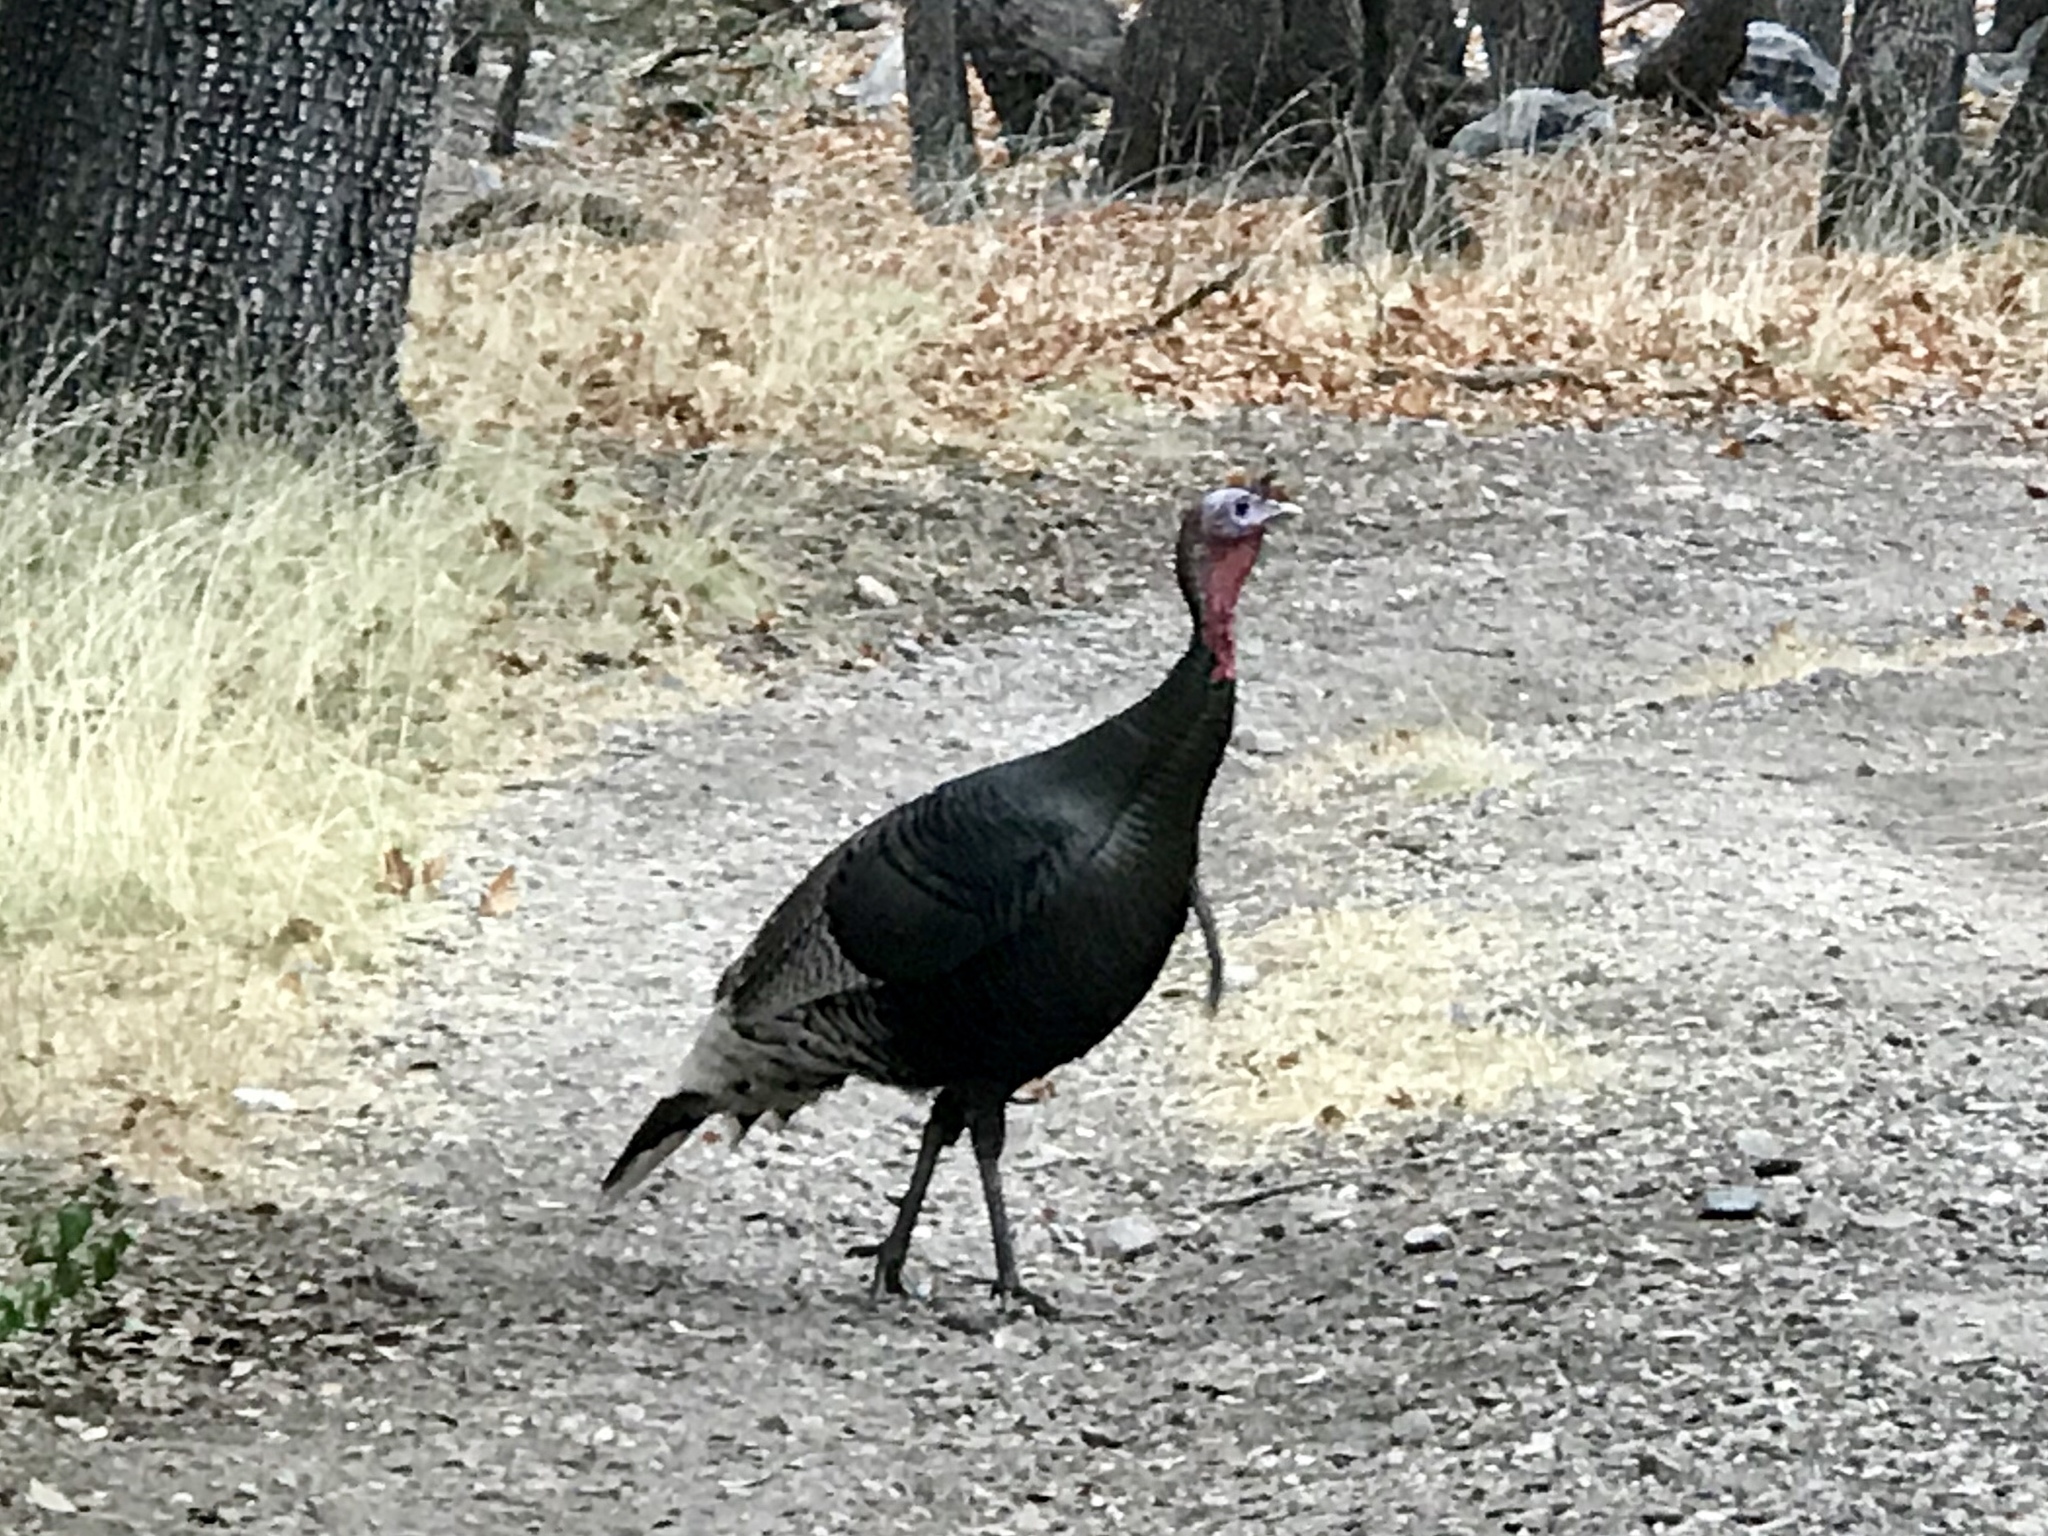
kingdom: Animalia
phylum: Chordata
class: Aves
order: Galliformes
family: Phasianidae
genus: Meleagris
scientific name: Meleagris gallopavo
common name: Wild turkey
